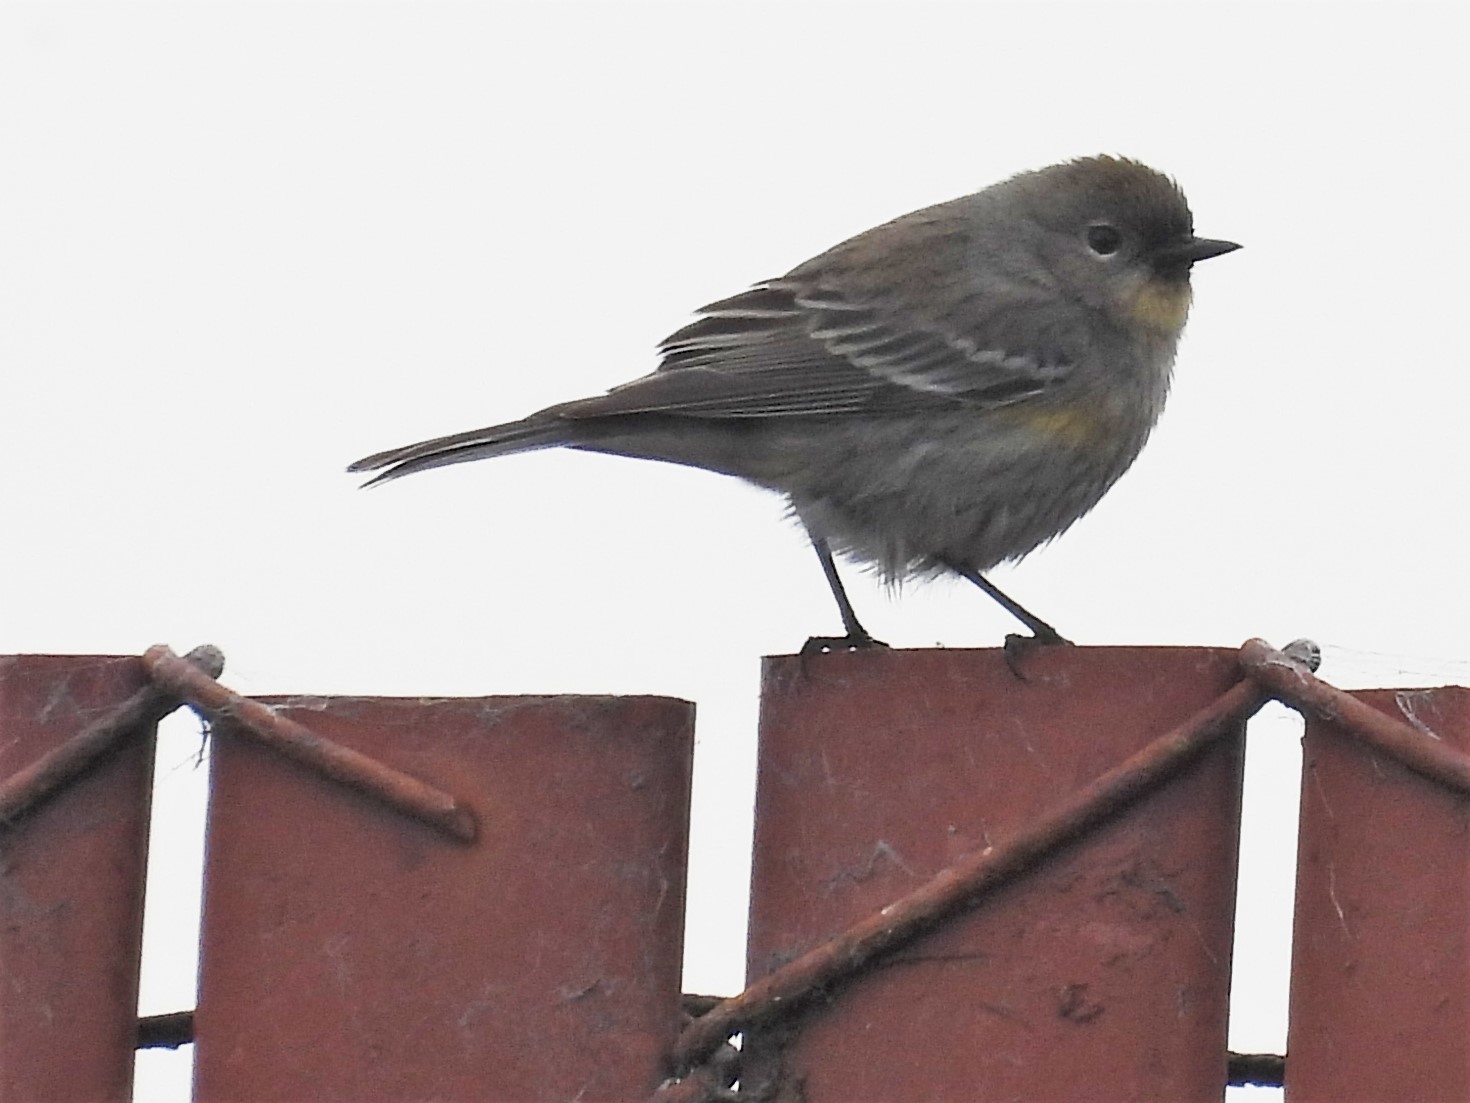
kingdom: Animalia
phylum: Chordata
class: Aves
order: Passeriformes
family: Parulidae
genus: Setophaga
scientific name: Setophaga coronata
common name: Myrtle warbler
